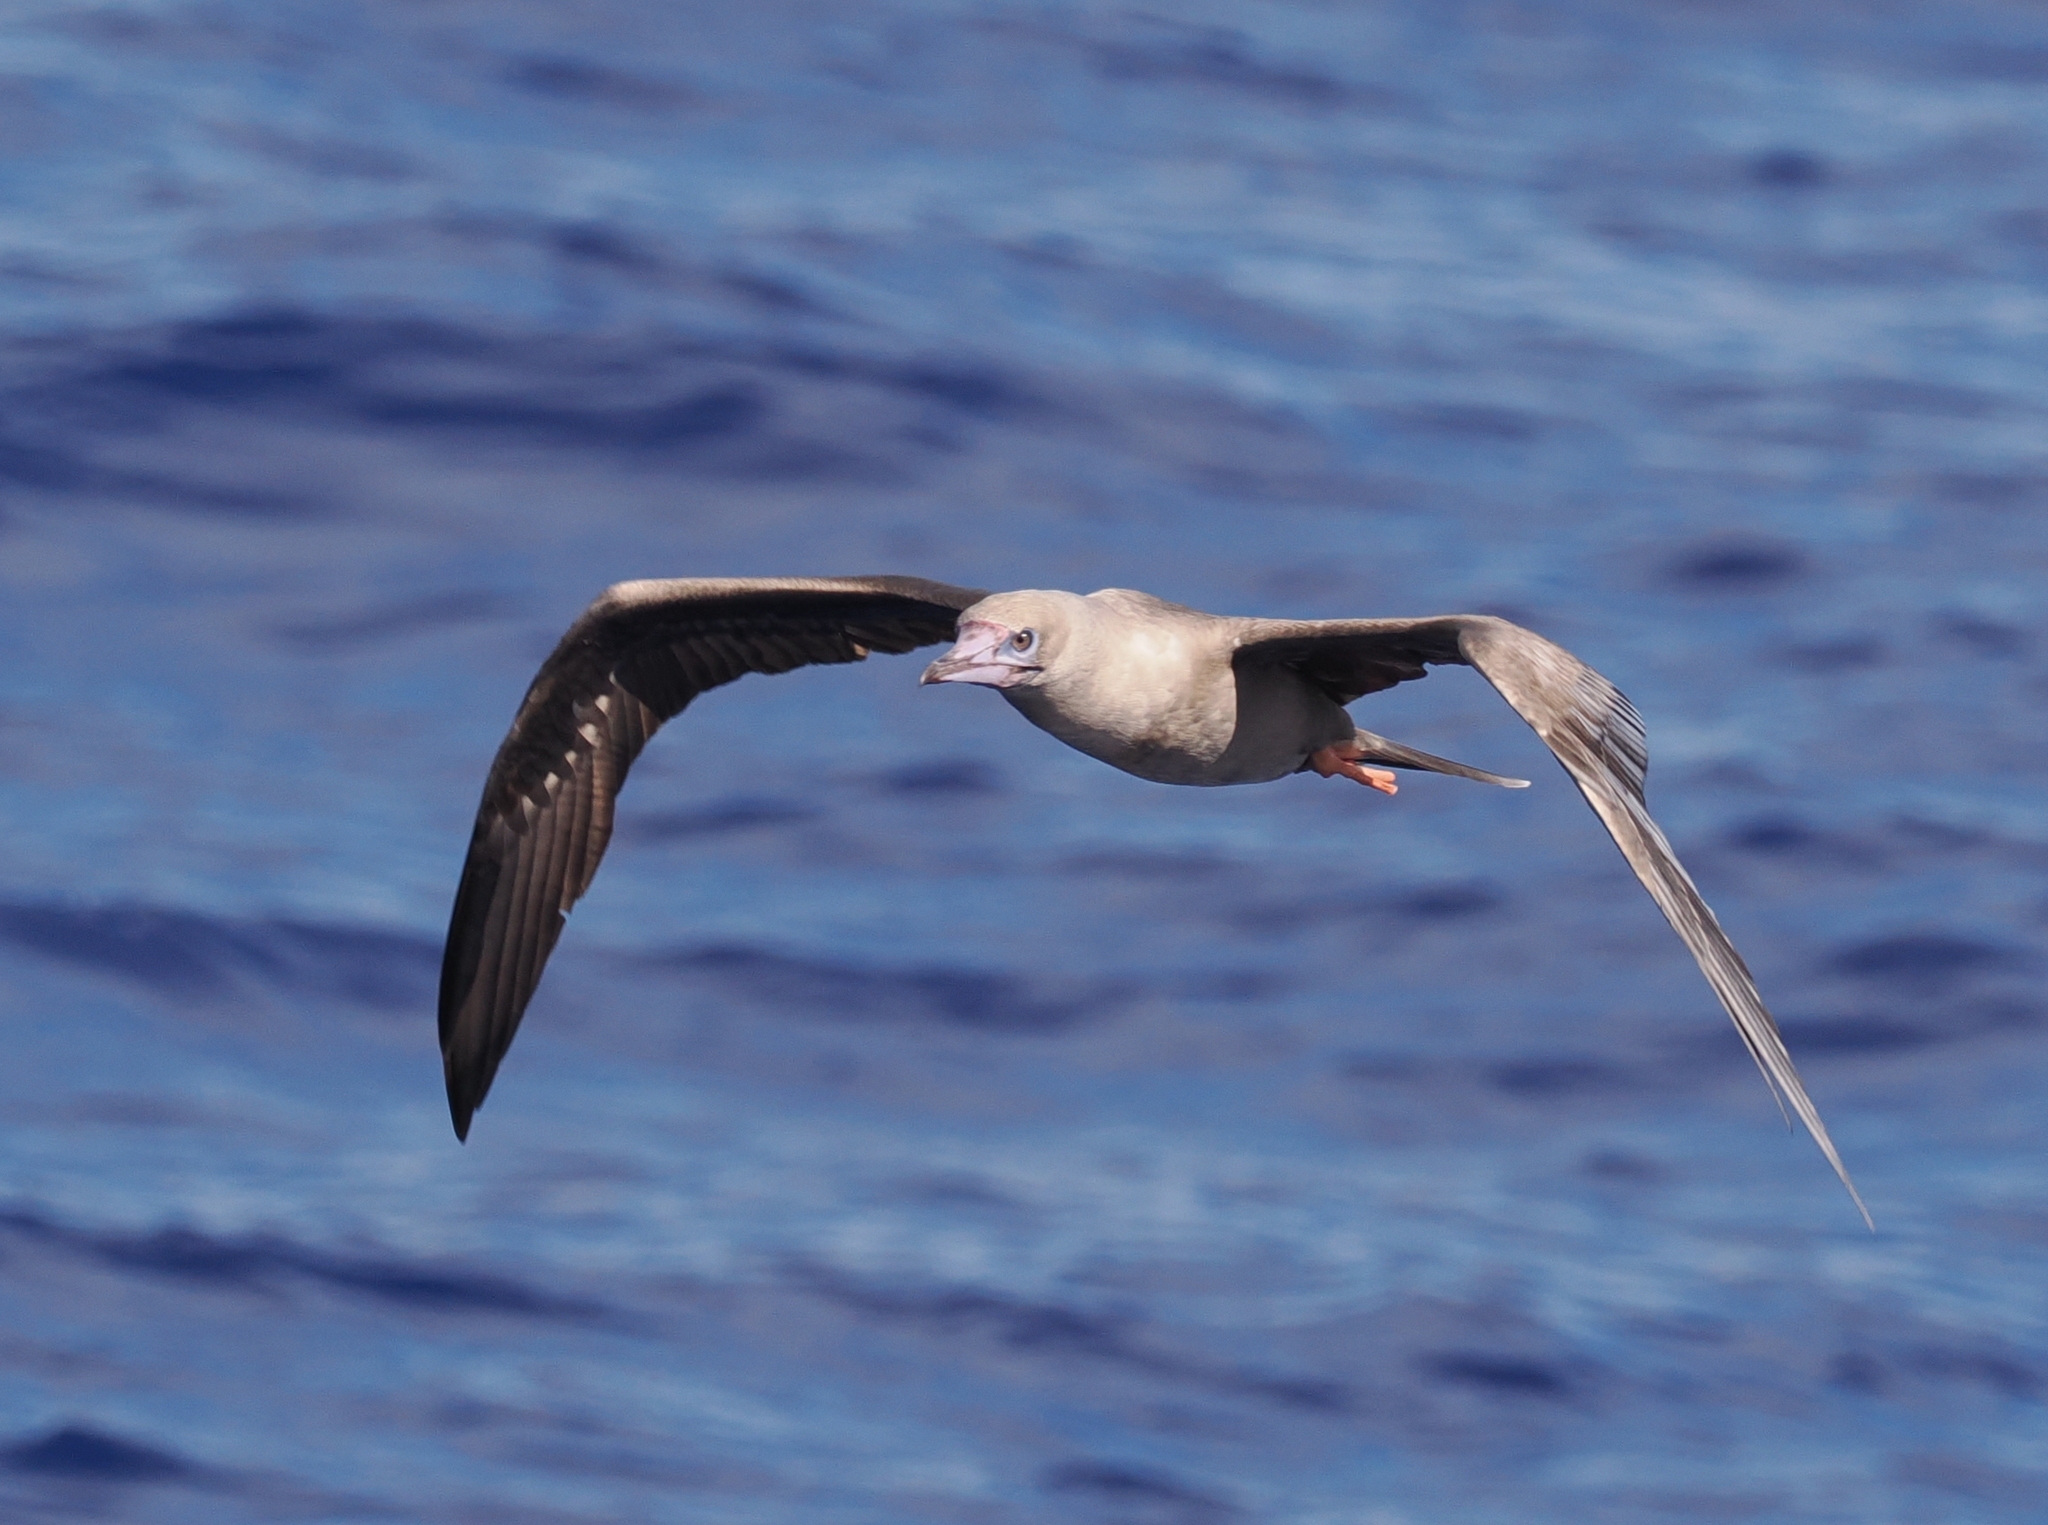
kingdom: Animalia
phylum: Chordata
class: Aves
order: Suliformes
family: Sulidae
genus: Sula
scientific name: Sula sula
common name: Red-footed booby
